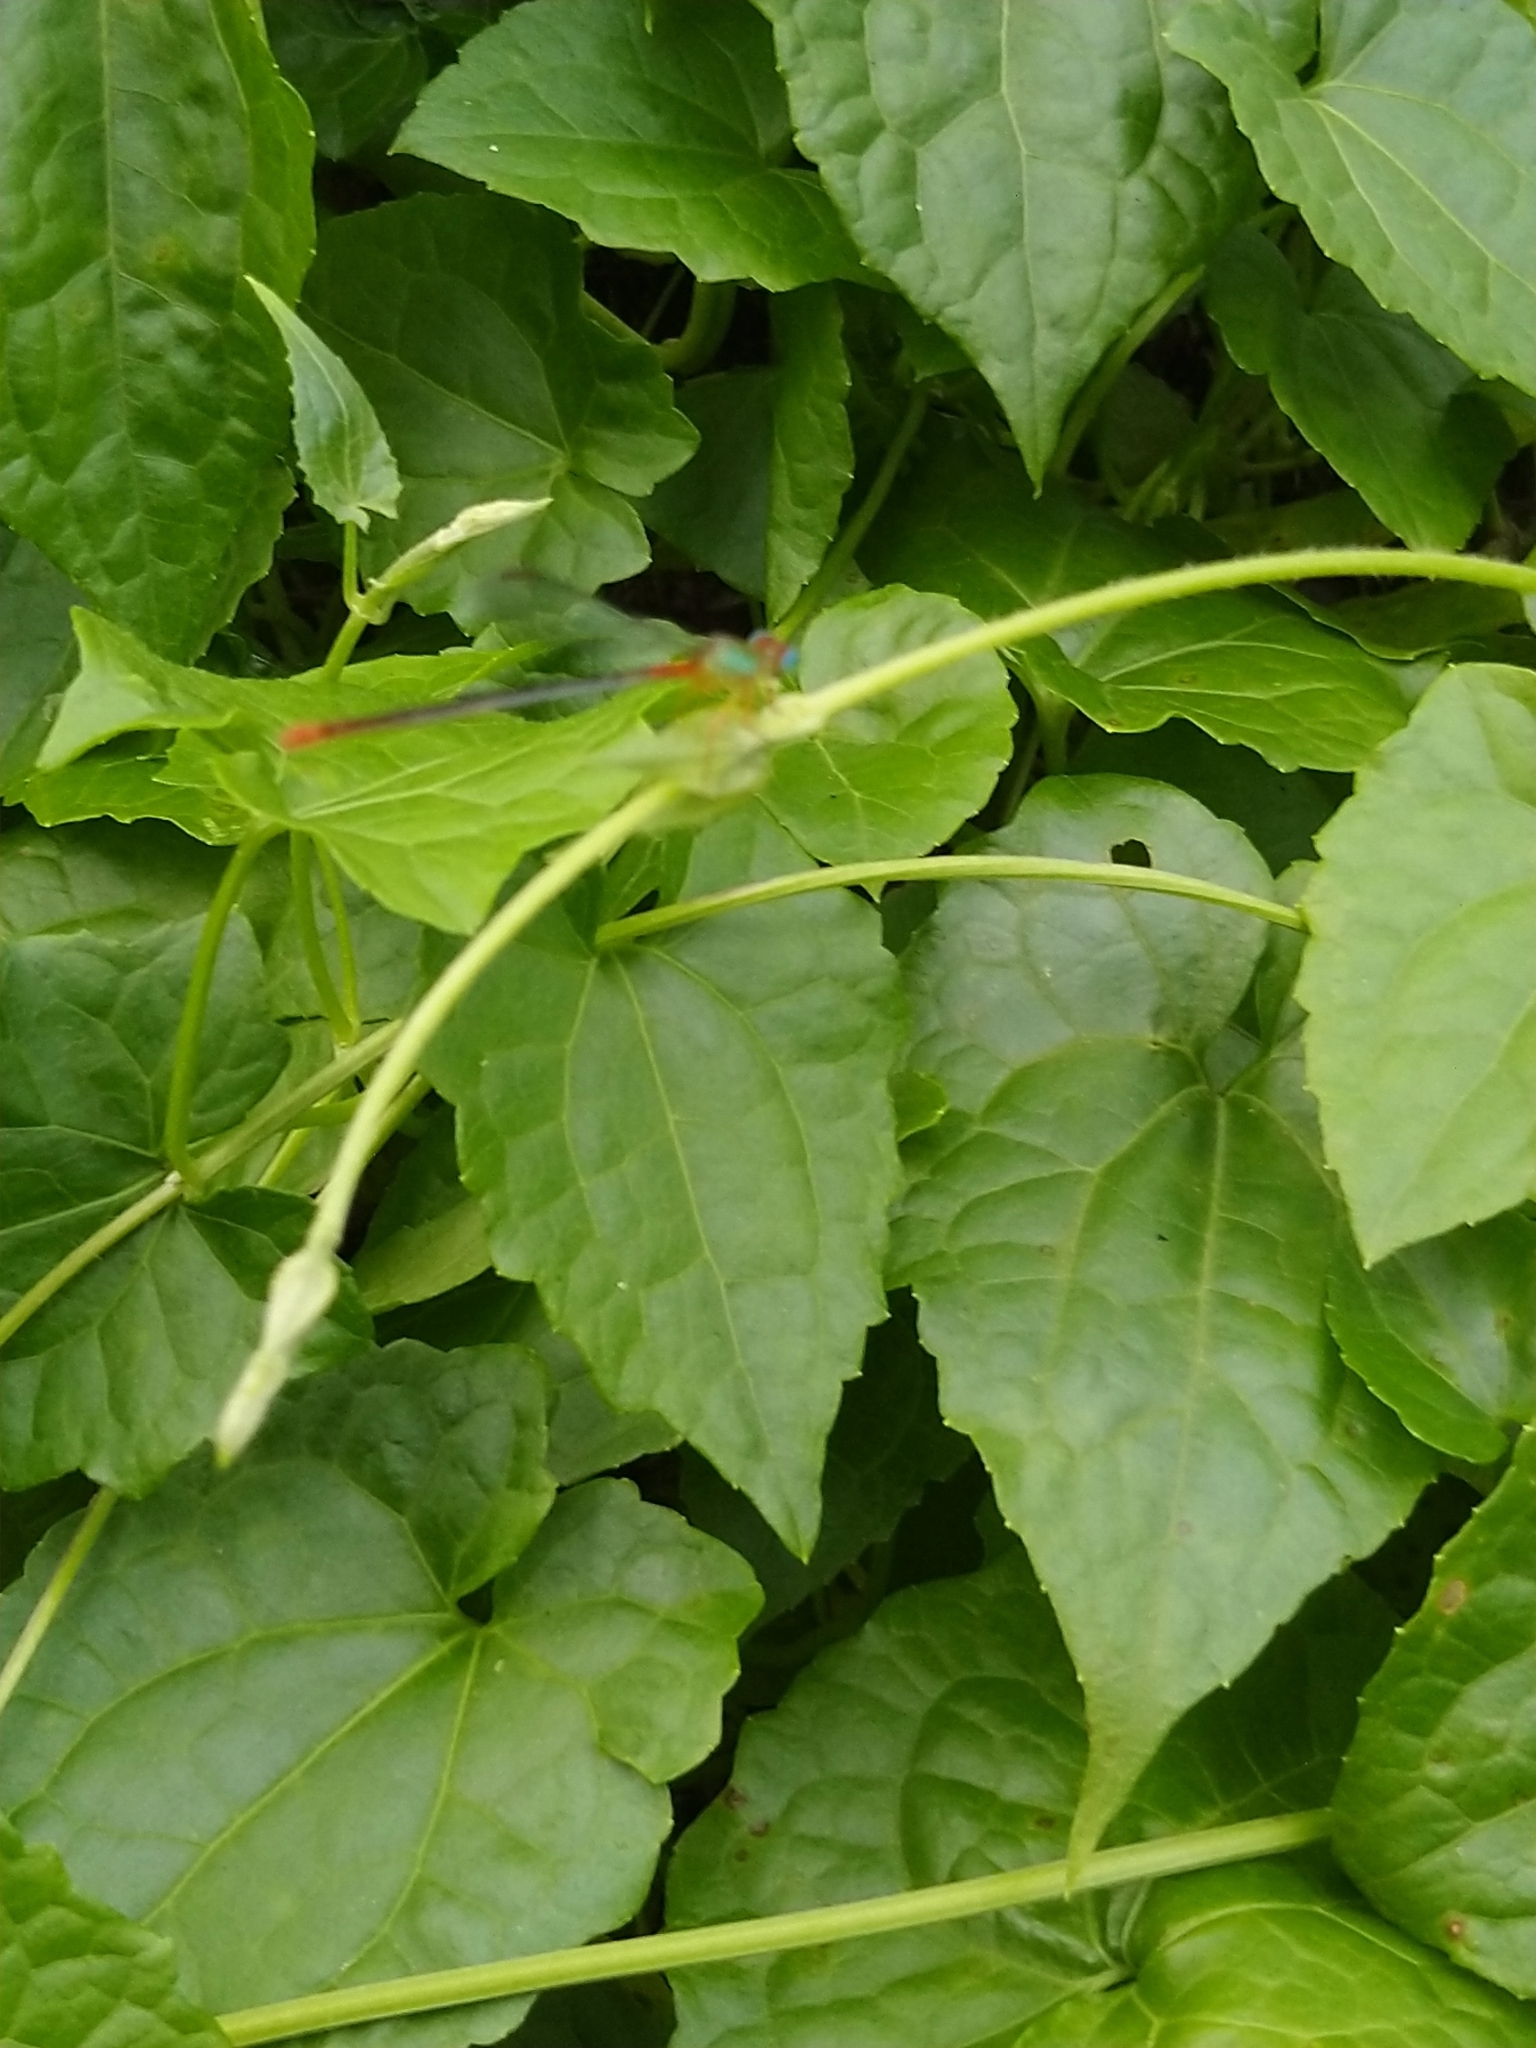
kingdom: Animalia
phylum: Arthropoda
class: Insecta
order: Odonata
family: Coenagrionidae
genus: Ceriagrion
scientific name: Ceriagrion cerinorubellum
